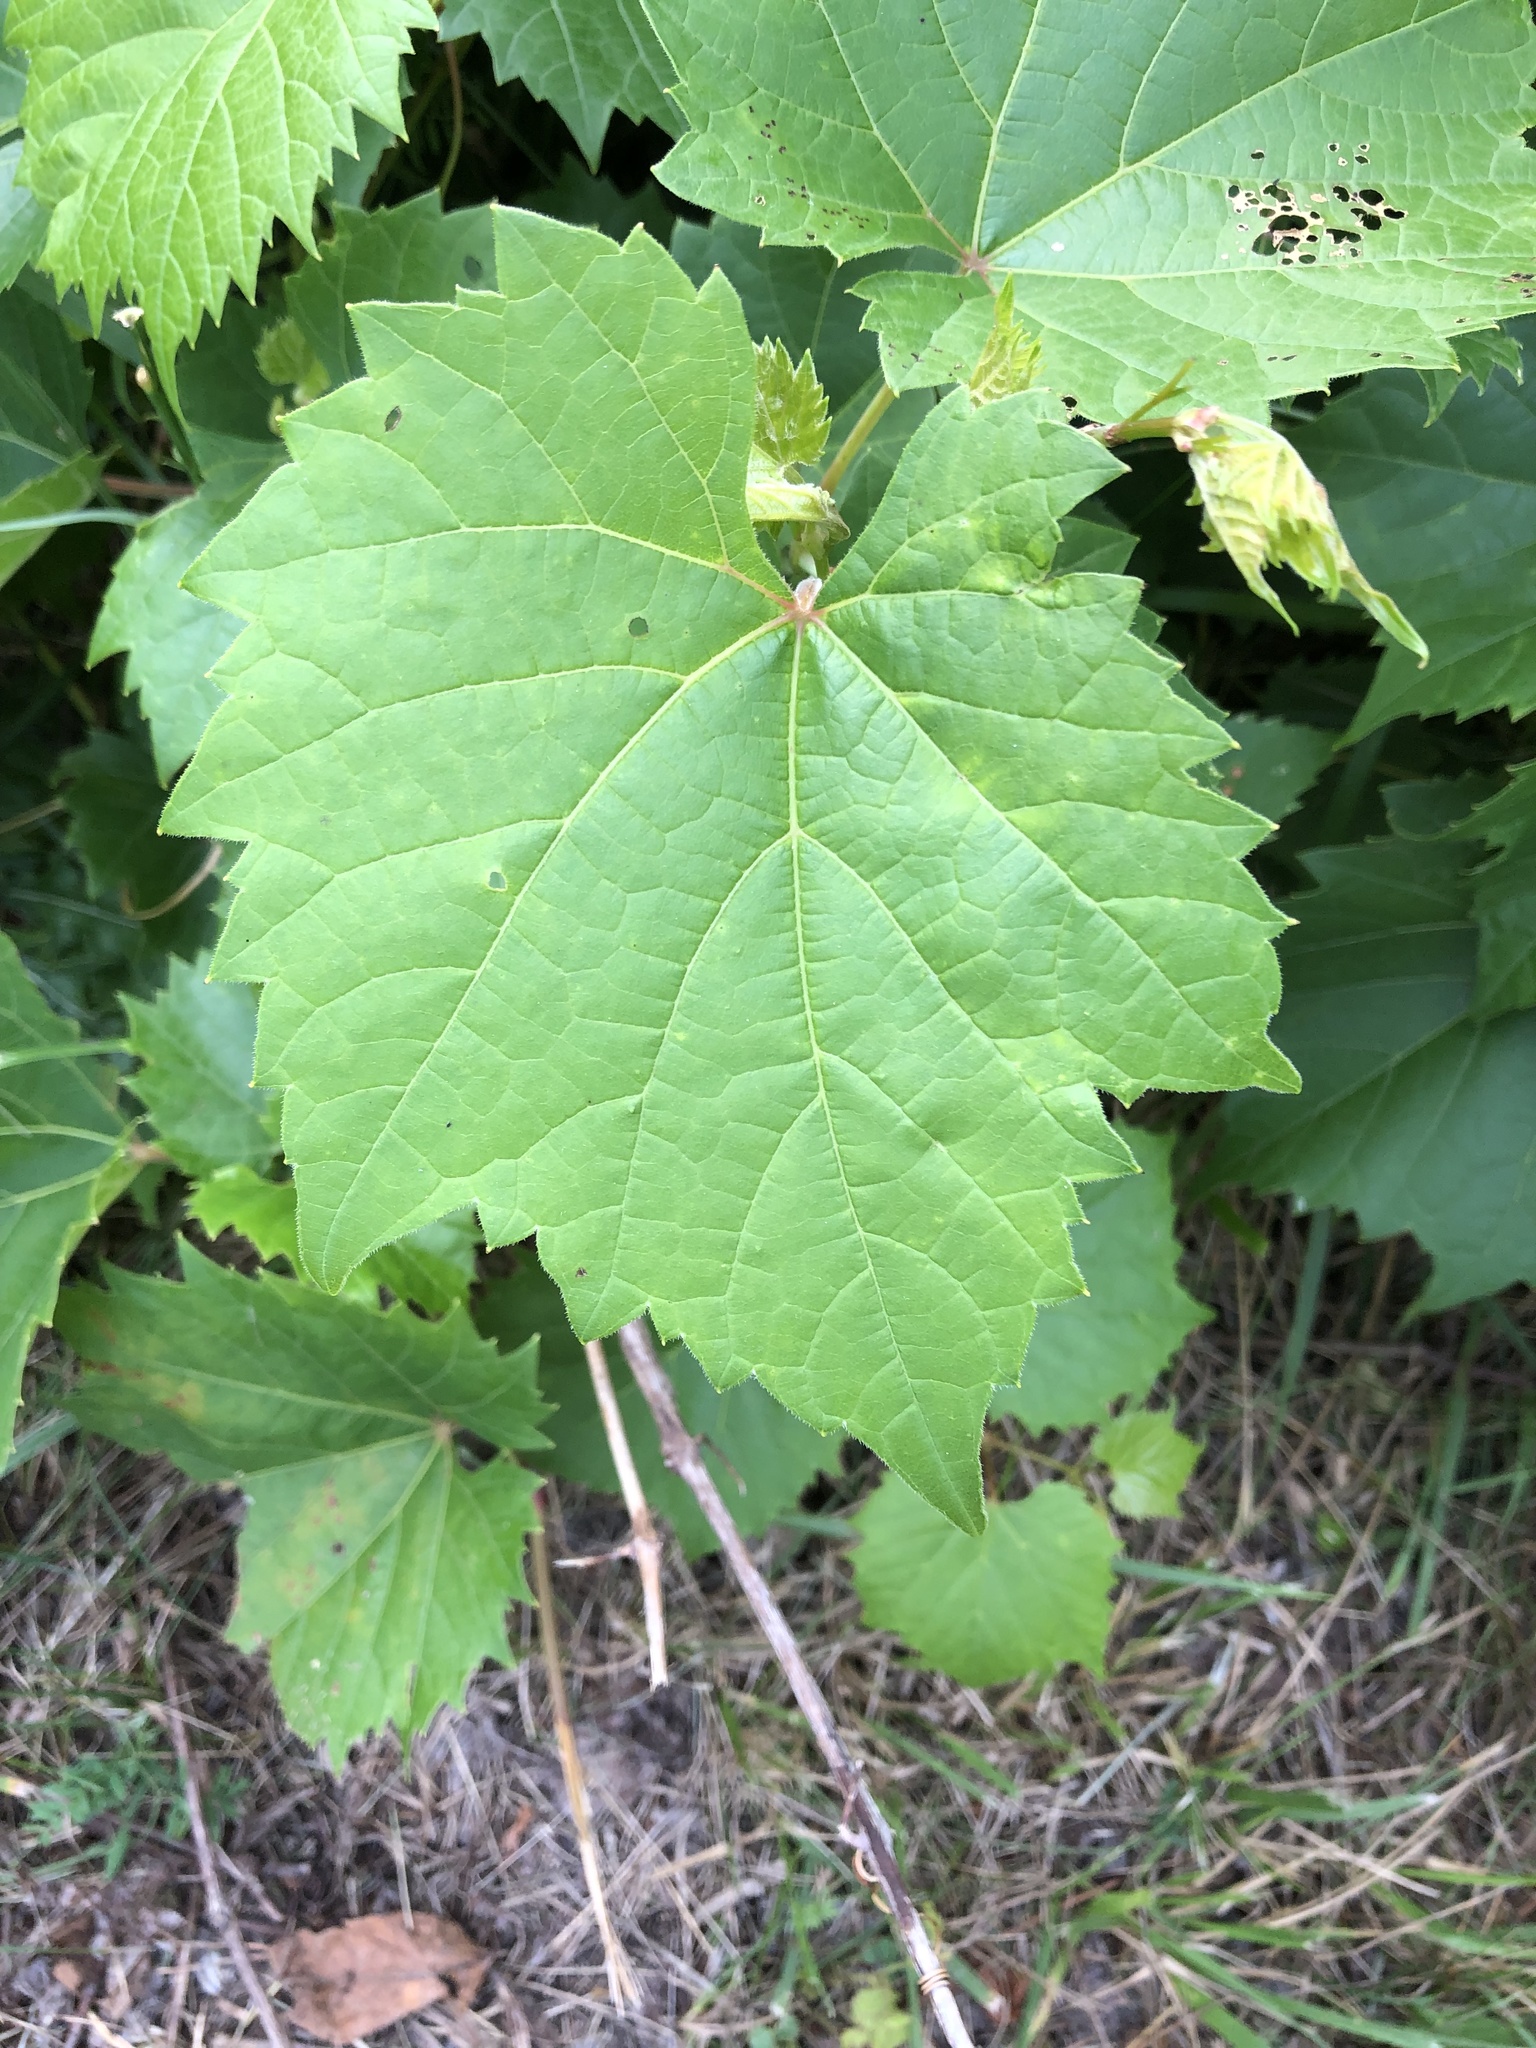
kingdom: Plantae
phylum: Tracheophyta
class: Magnoliopsida
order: Vitales
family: Vitaceae
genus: Vitis
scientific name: Vitis riparia
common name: Frost grape
